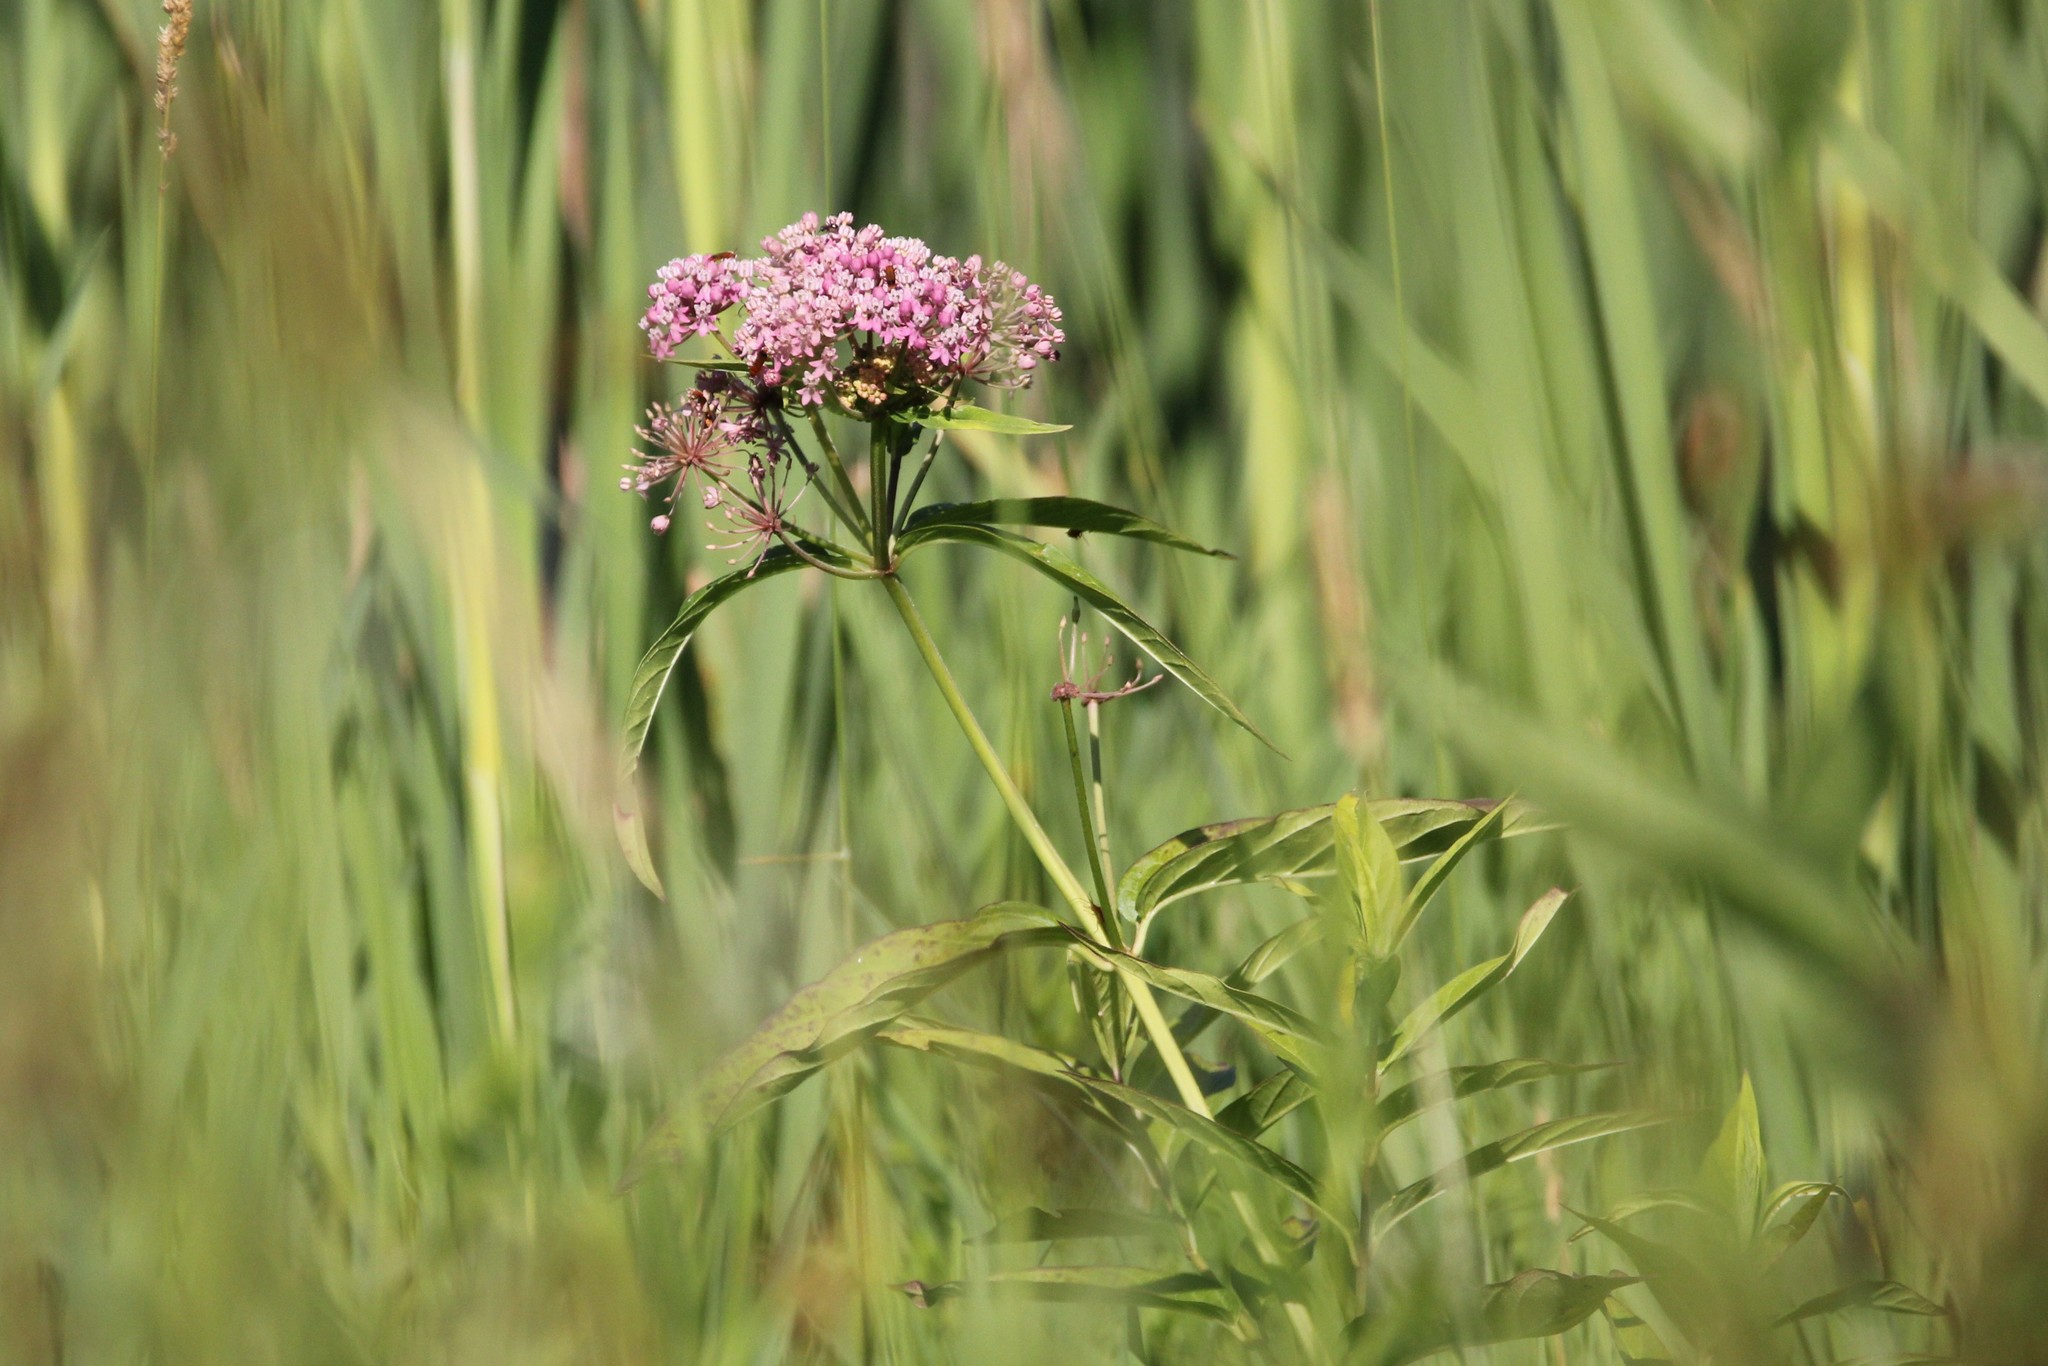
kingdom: Plantae
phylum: Tracheophyta
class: Magnoliopsida
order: Gentianales
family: Apocynaceae
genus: Asclepias
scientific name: Asclepias incarnata
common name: Swamp milkweed
